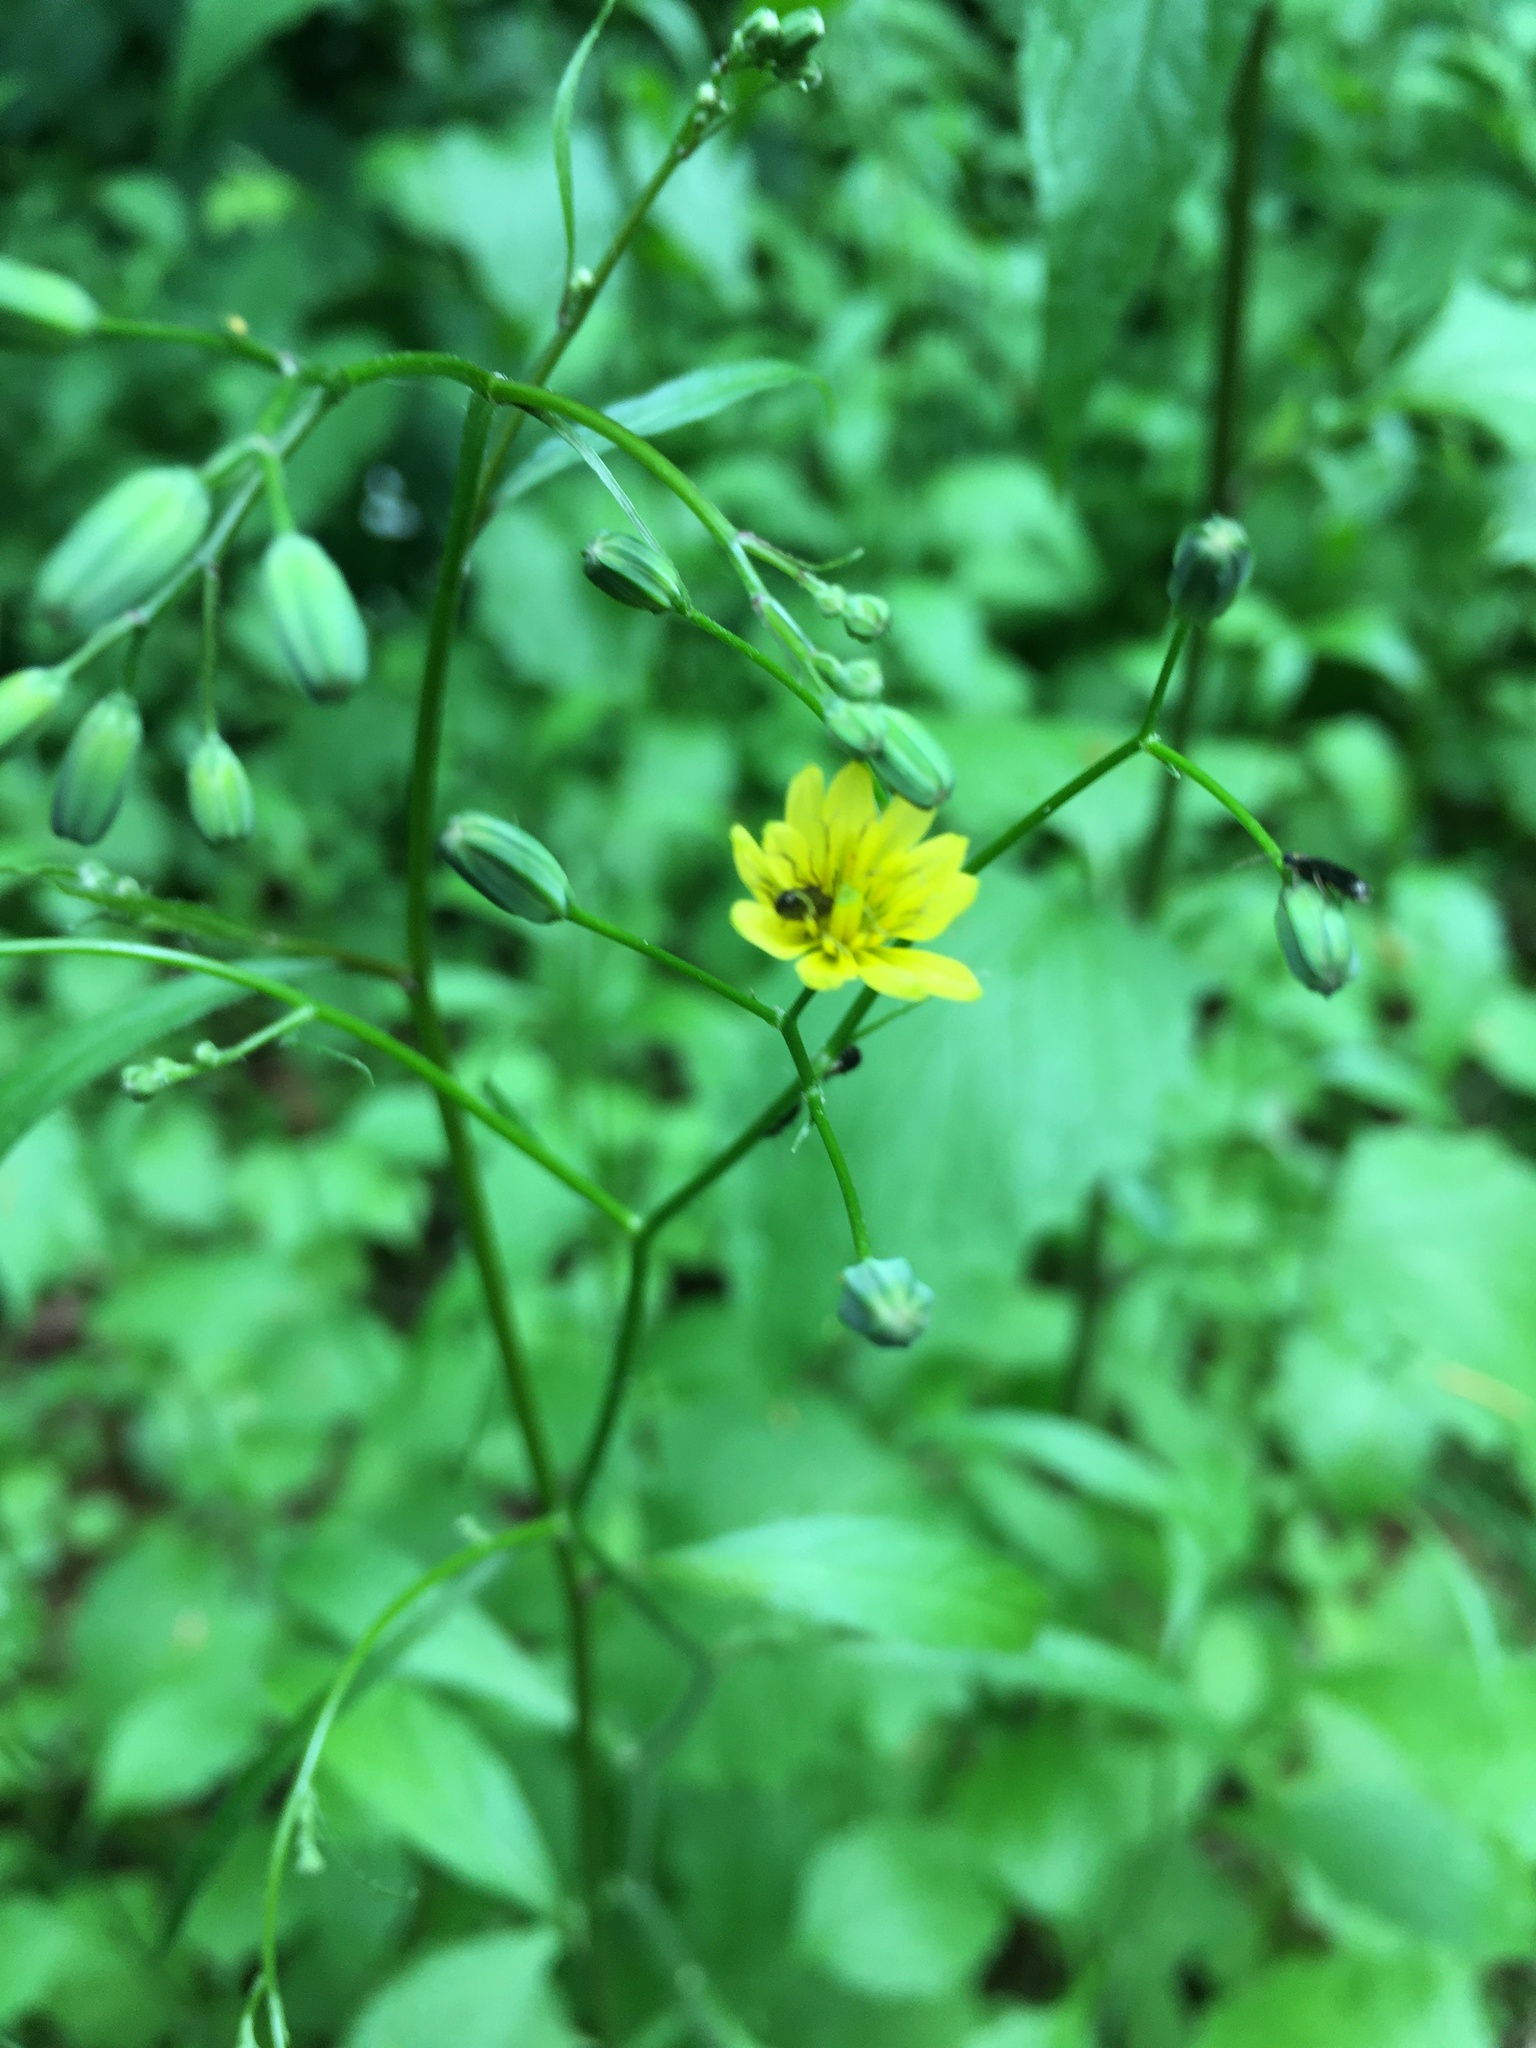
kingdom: Plantae
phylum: Tracheophyta
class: Magnoliopsida
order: Asterales
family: Asteraceae
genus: Lapsana
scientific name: Lapsana communis
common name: Nipplewort
